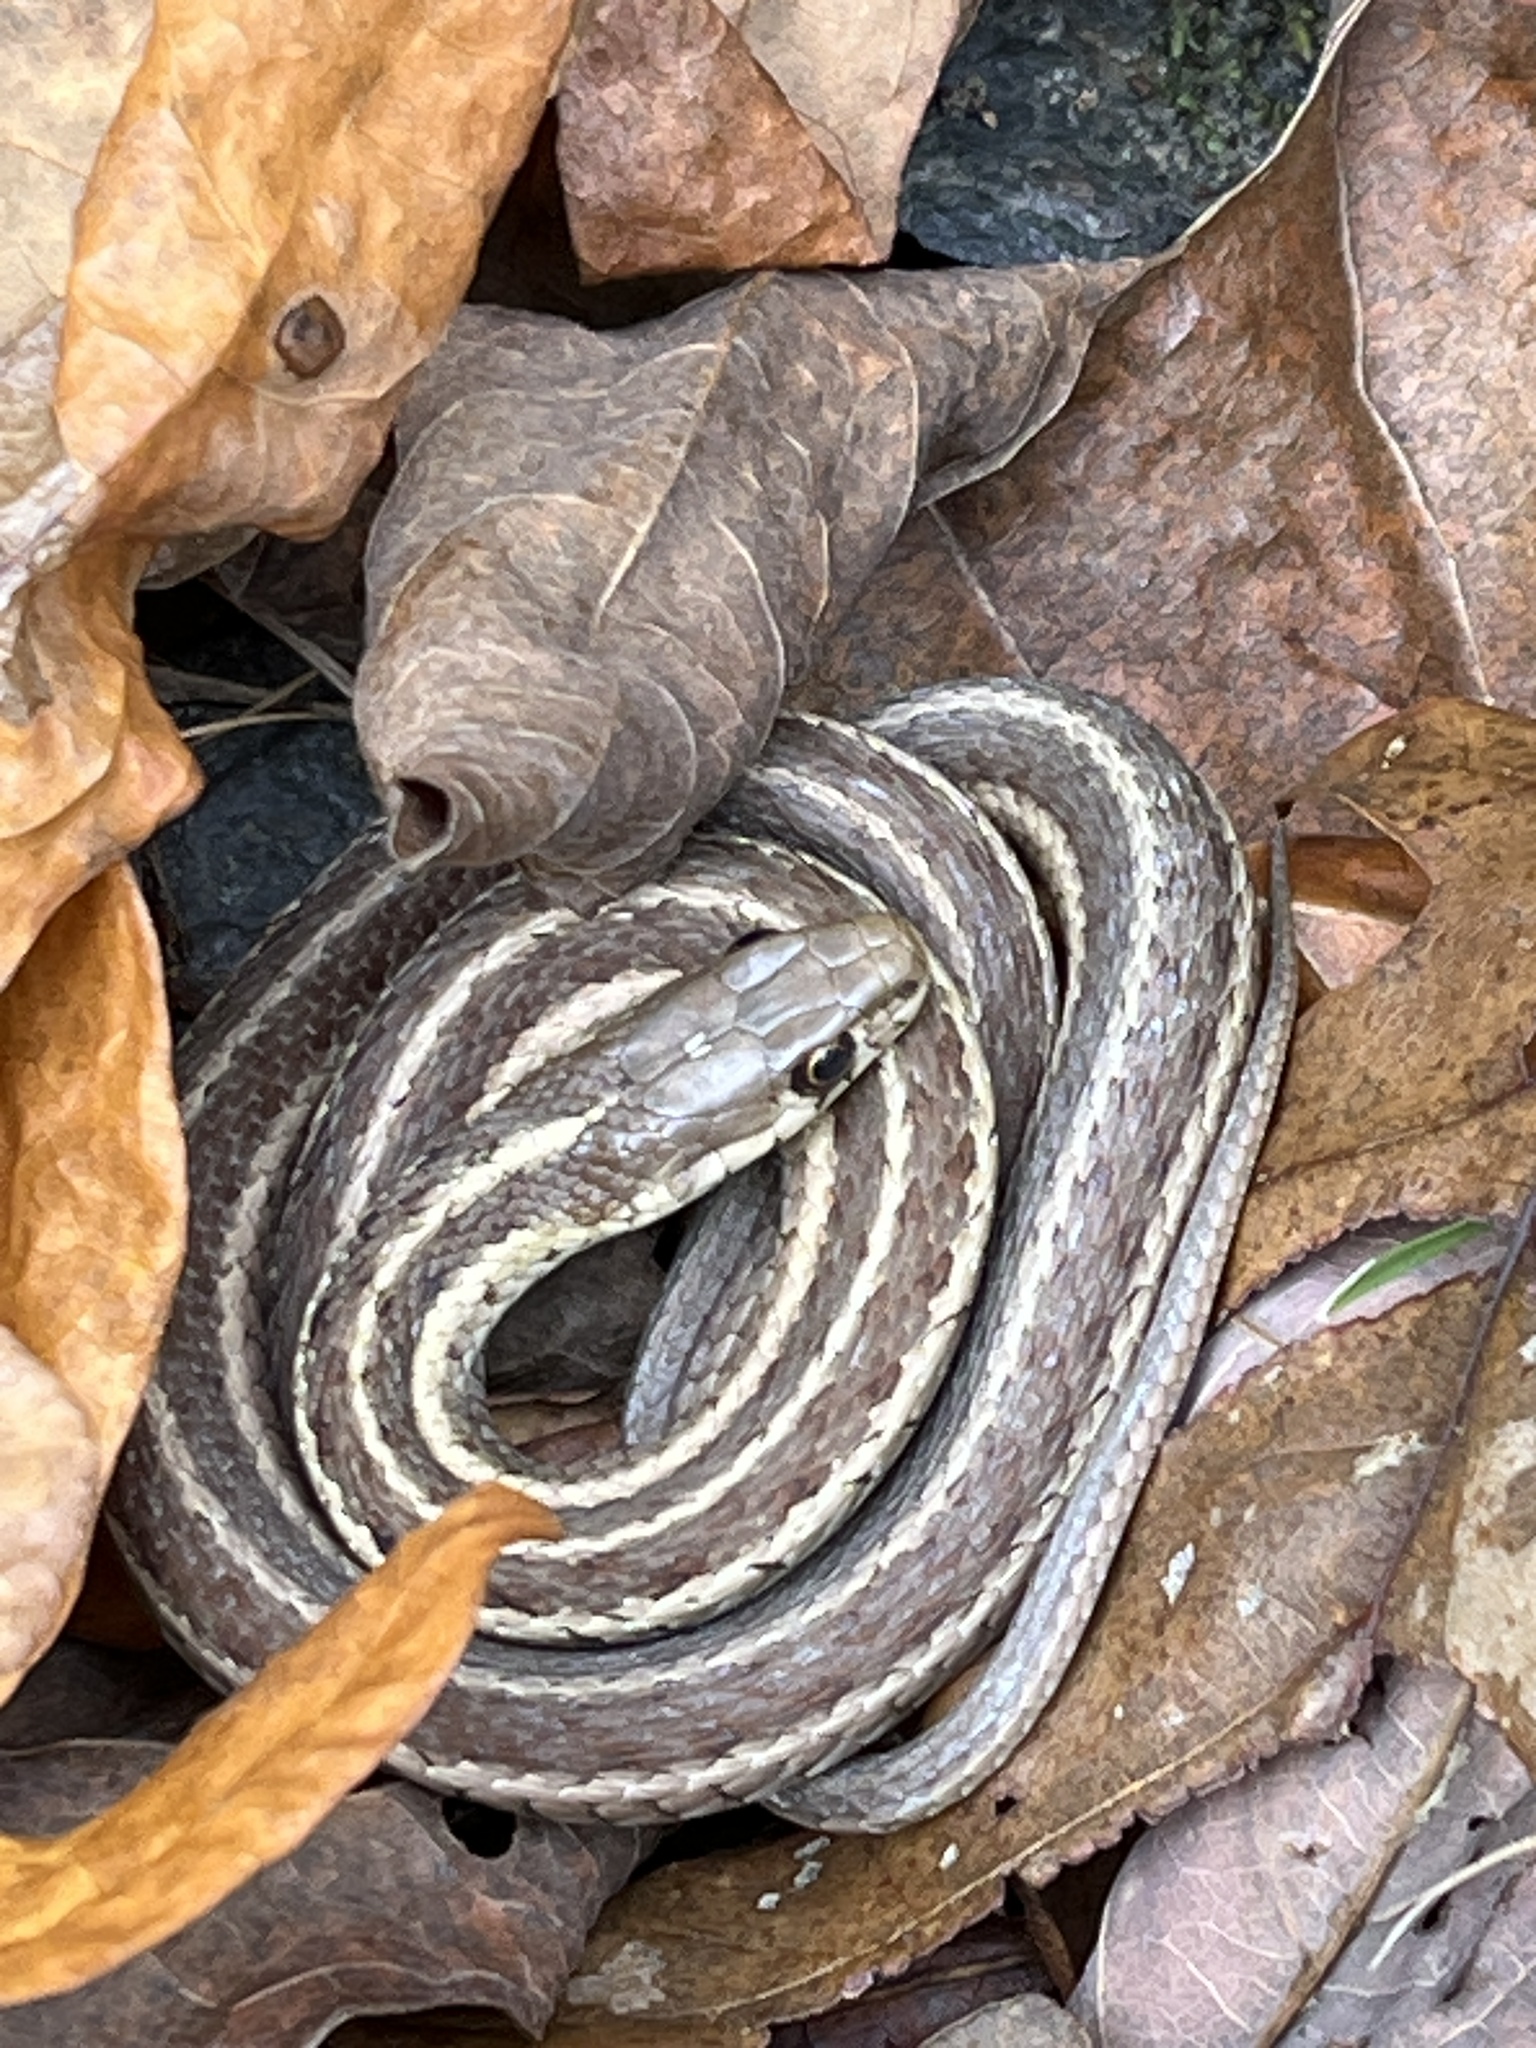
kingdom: Animalia
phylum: Chordata
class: Squamata
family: Colubridae
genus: Thamnophis
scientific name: Thamnophis sirtalis
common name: Common garter snake
